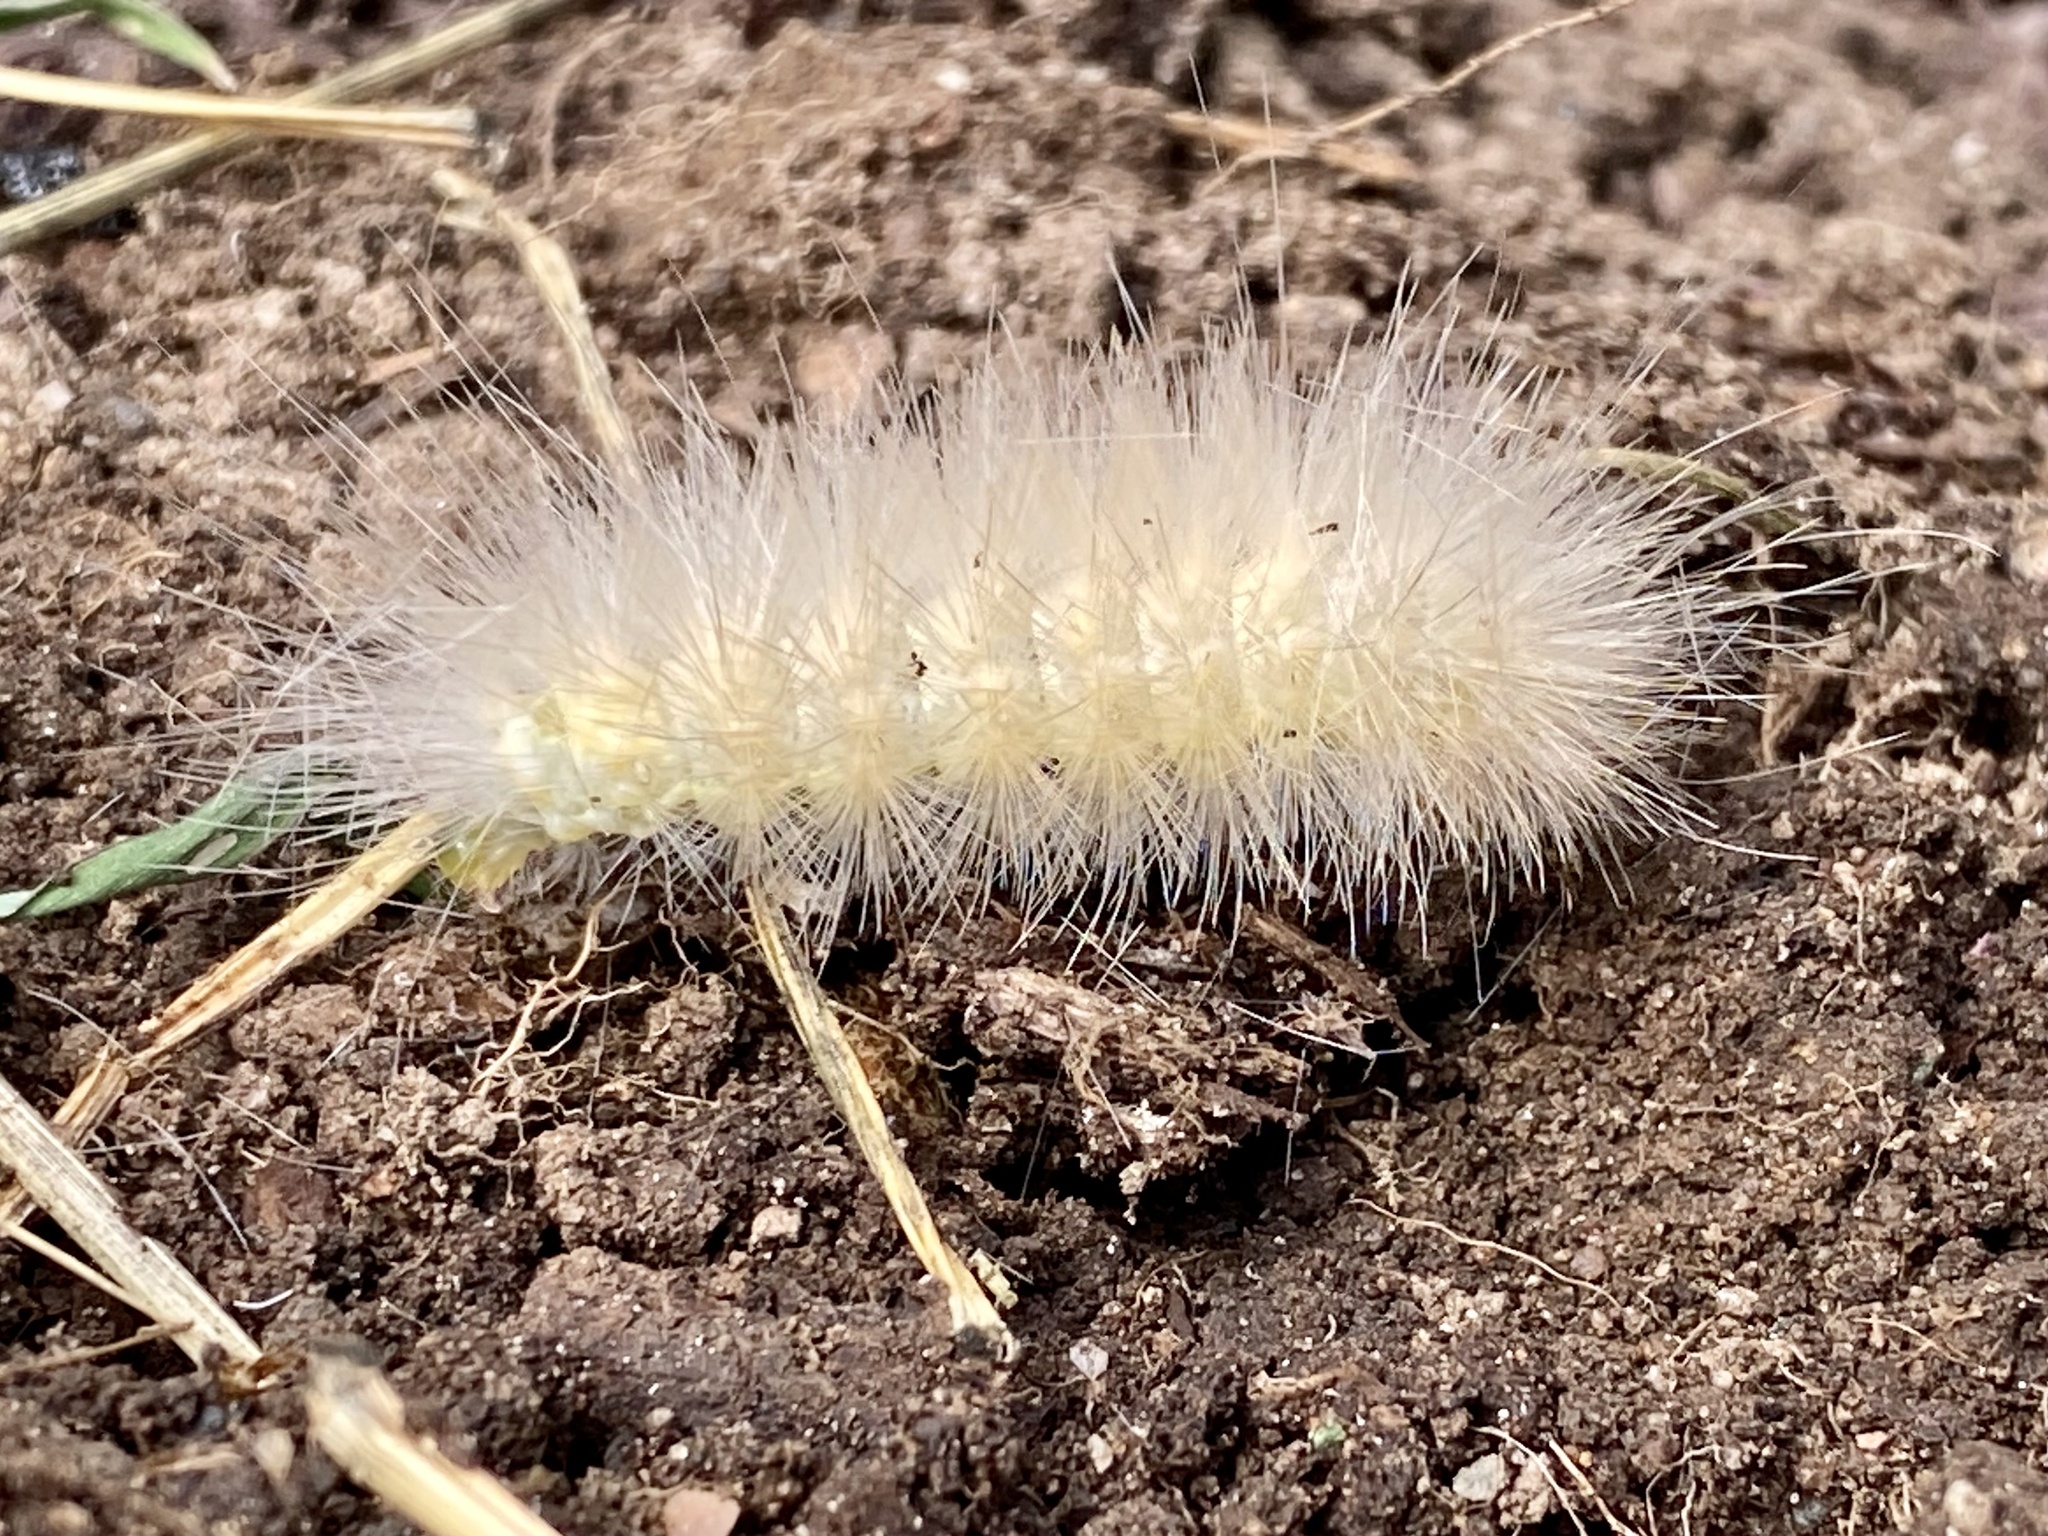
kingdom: Animalia
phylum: Arthropoda
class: Insecta
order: Lepidoptera
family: Erebidae
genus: Spilosoma
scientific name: Spilosoma virginica
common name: Virginia tiger moth
